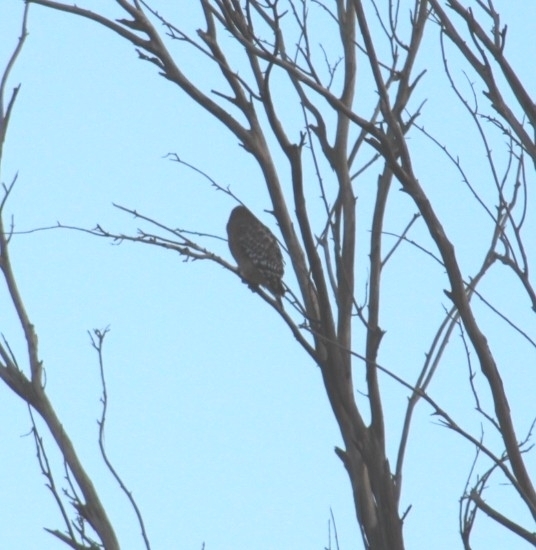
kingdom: Animalia
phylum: Chordata
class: Aves
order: Accipitriformes
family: Accipitridae
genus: Buteo
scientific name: Buteo lineatus
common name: Red-shouldered hawk
